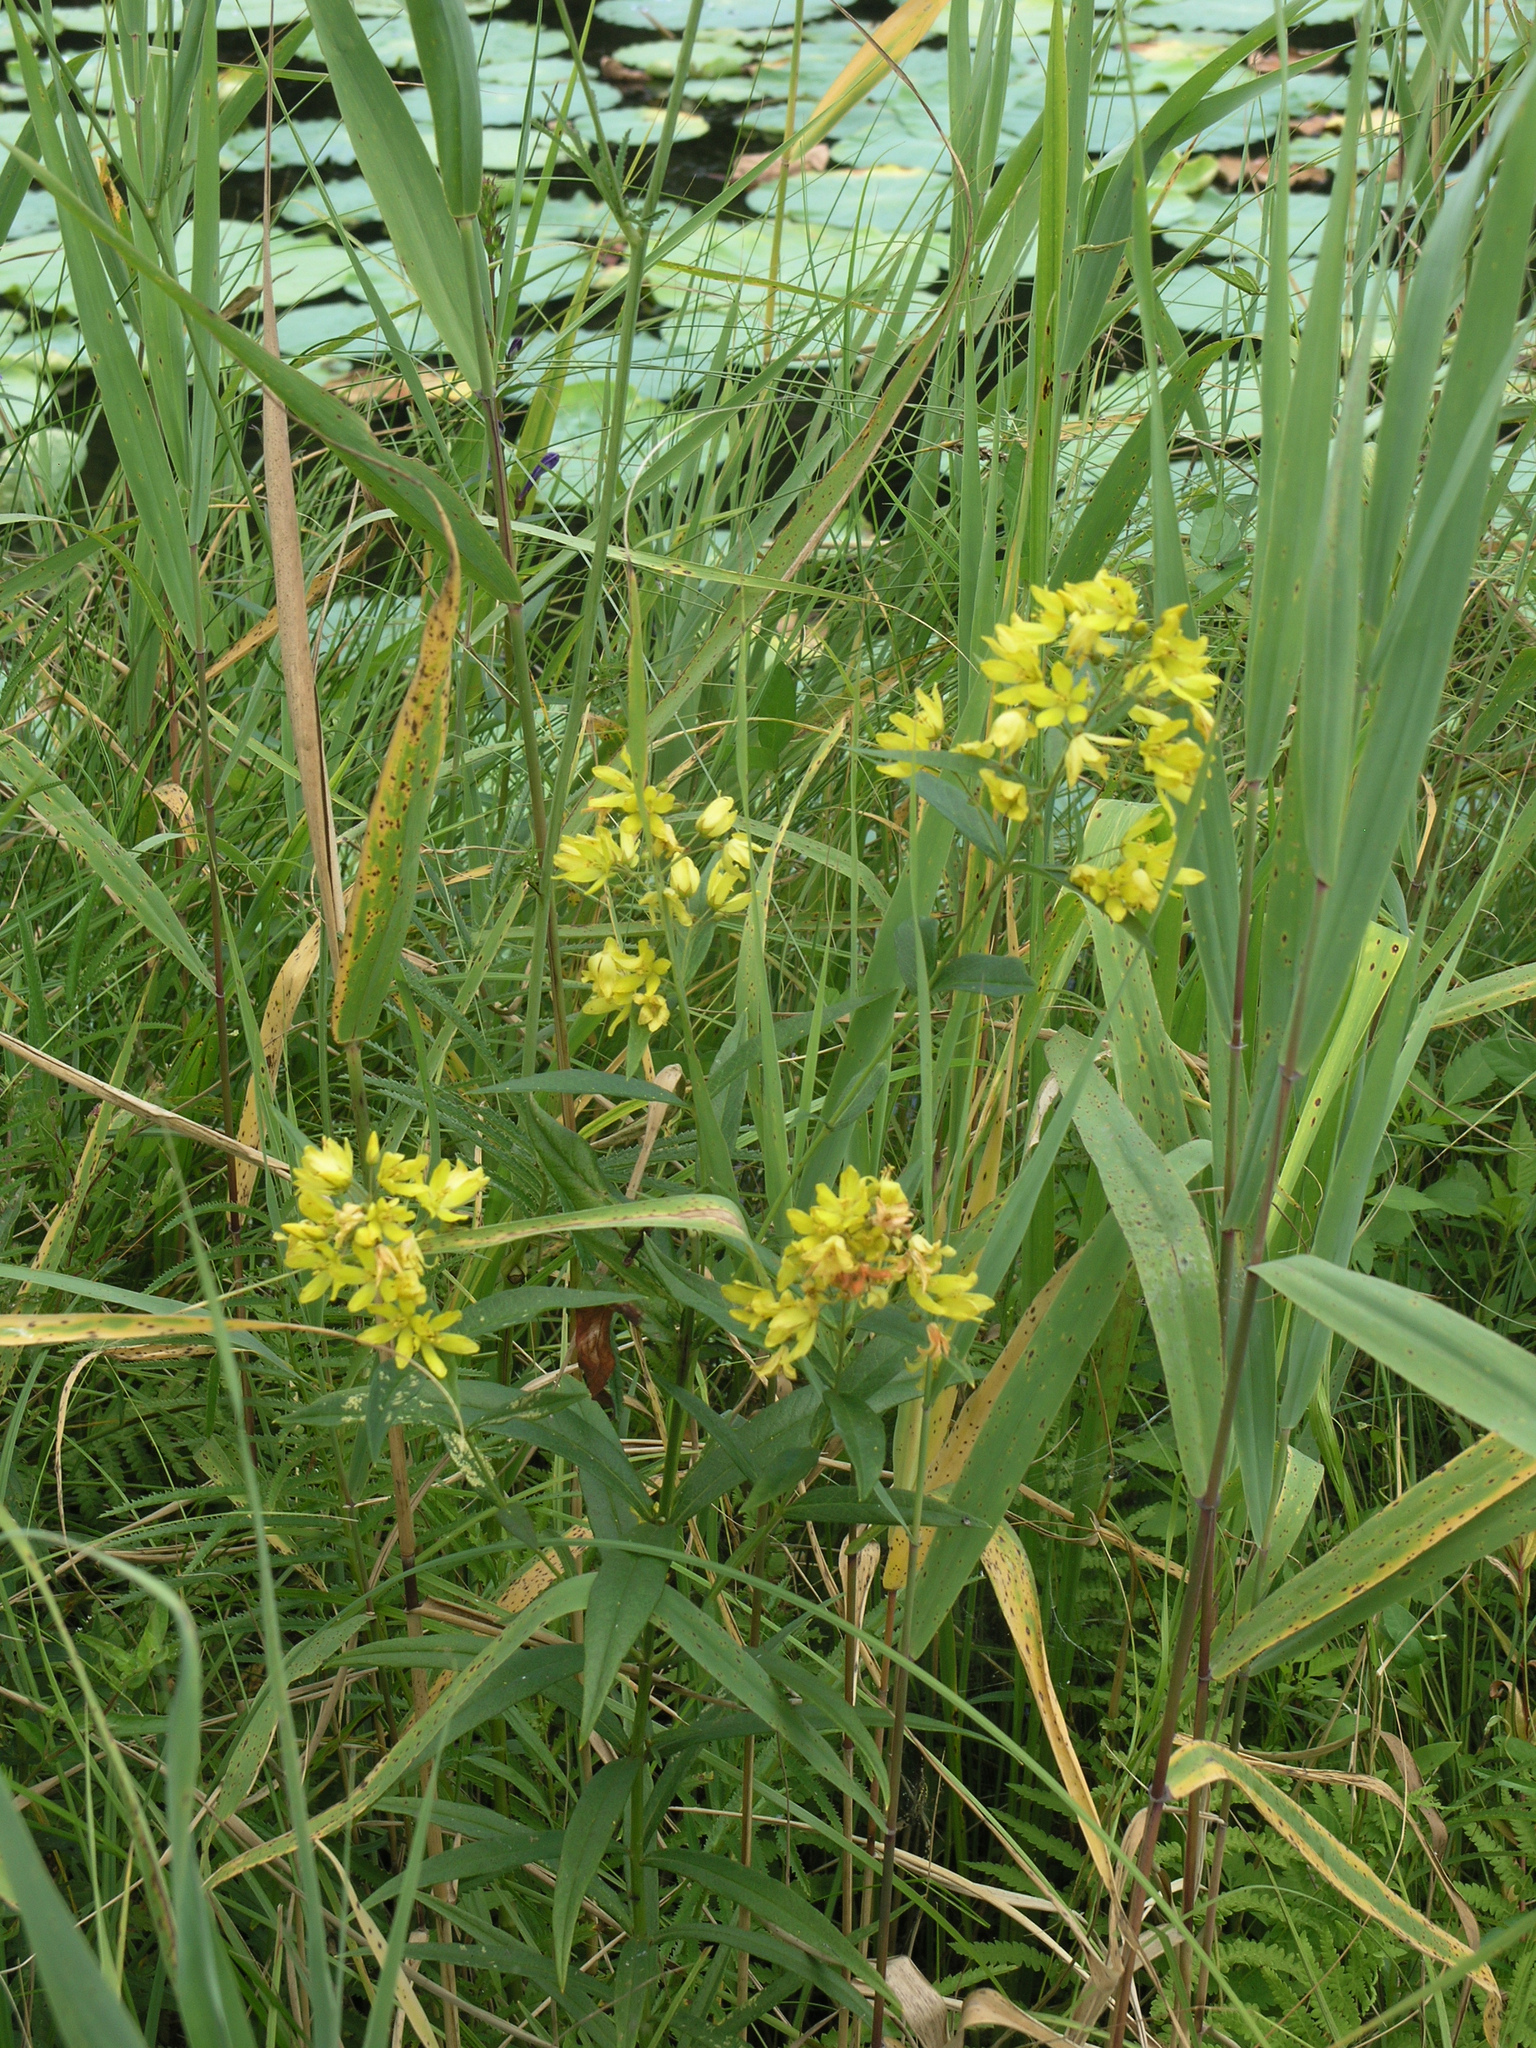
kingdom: Plantae
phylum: Tracheophyta
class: Magnoliopsida
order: Ericales
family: Primulaceae
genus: Lysimachia
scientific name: Lysimachia davurica
